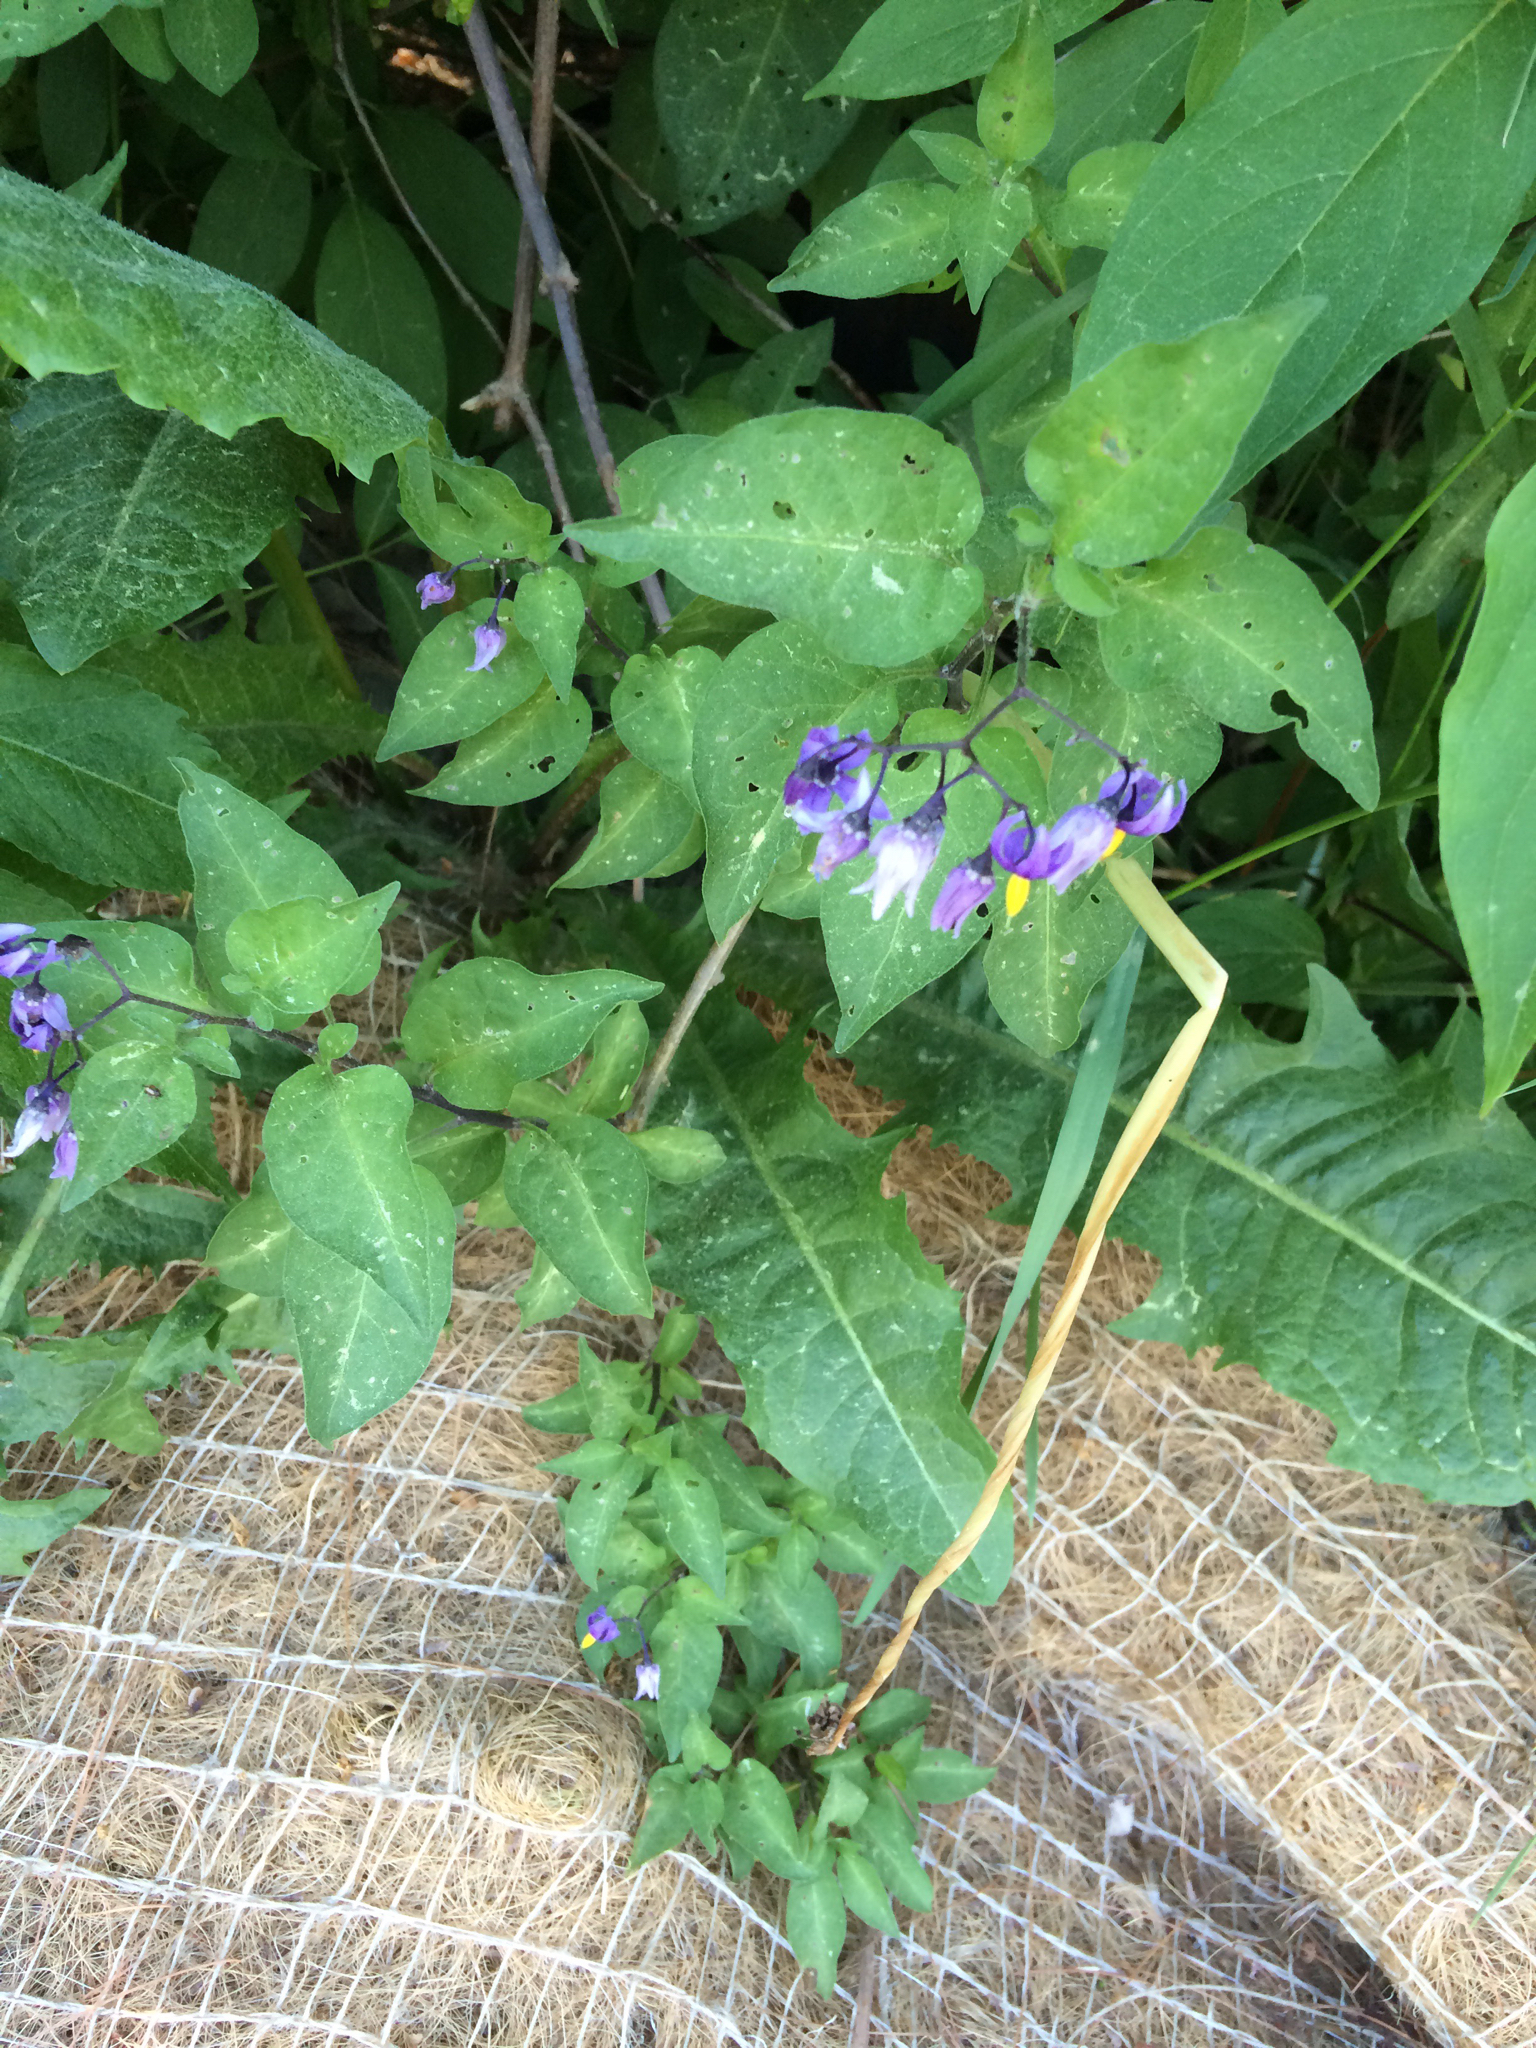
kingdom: Plantae
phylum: Tracheophyta
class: Magnoliopsida
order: Solanales
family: Solanaceae
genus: Solanum
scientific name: Solanum dulcamara
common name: Climbing nightshade
